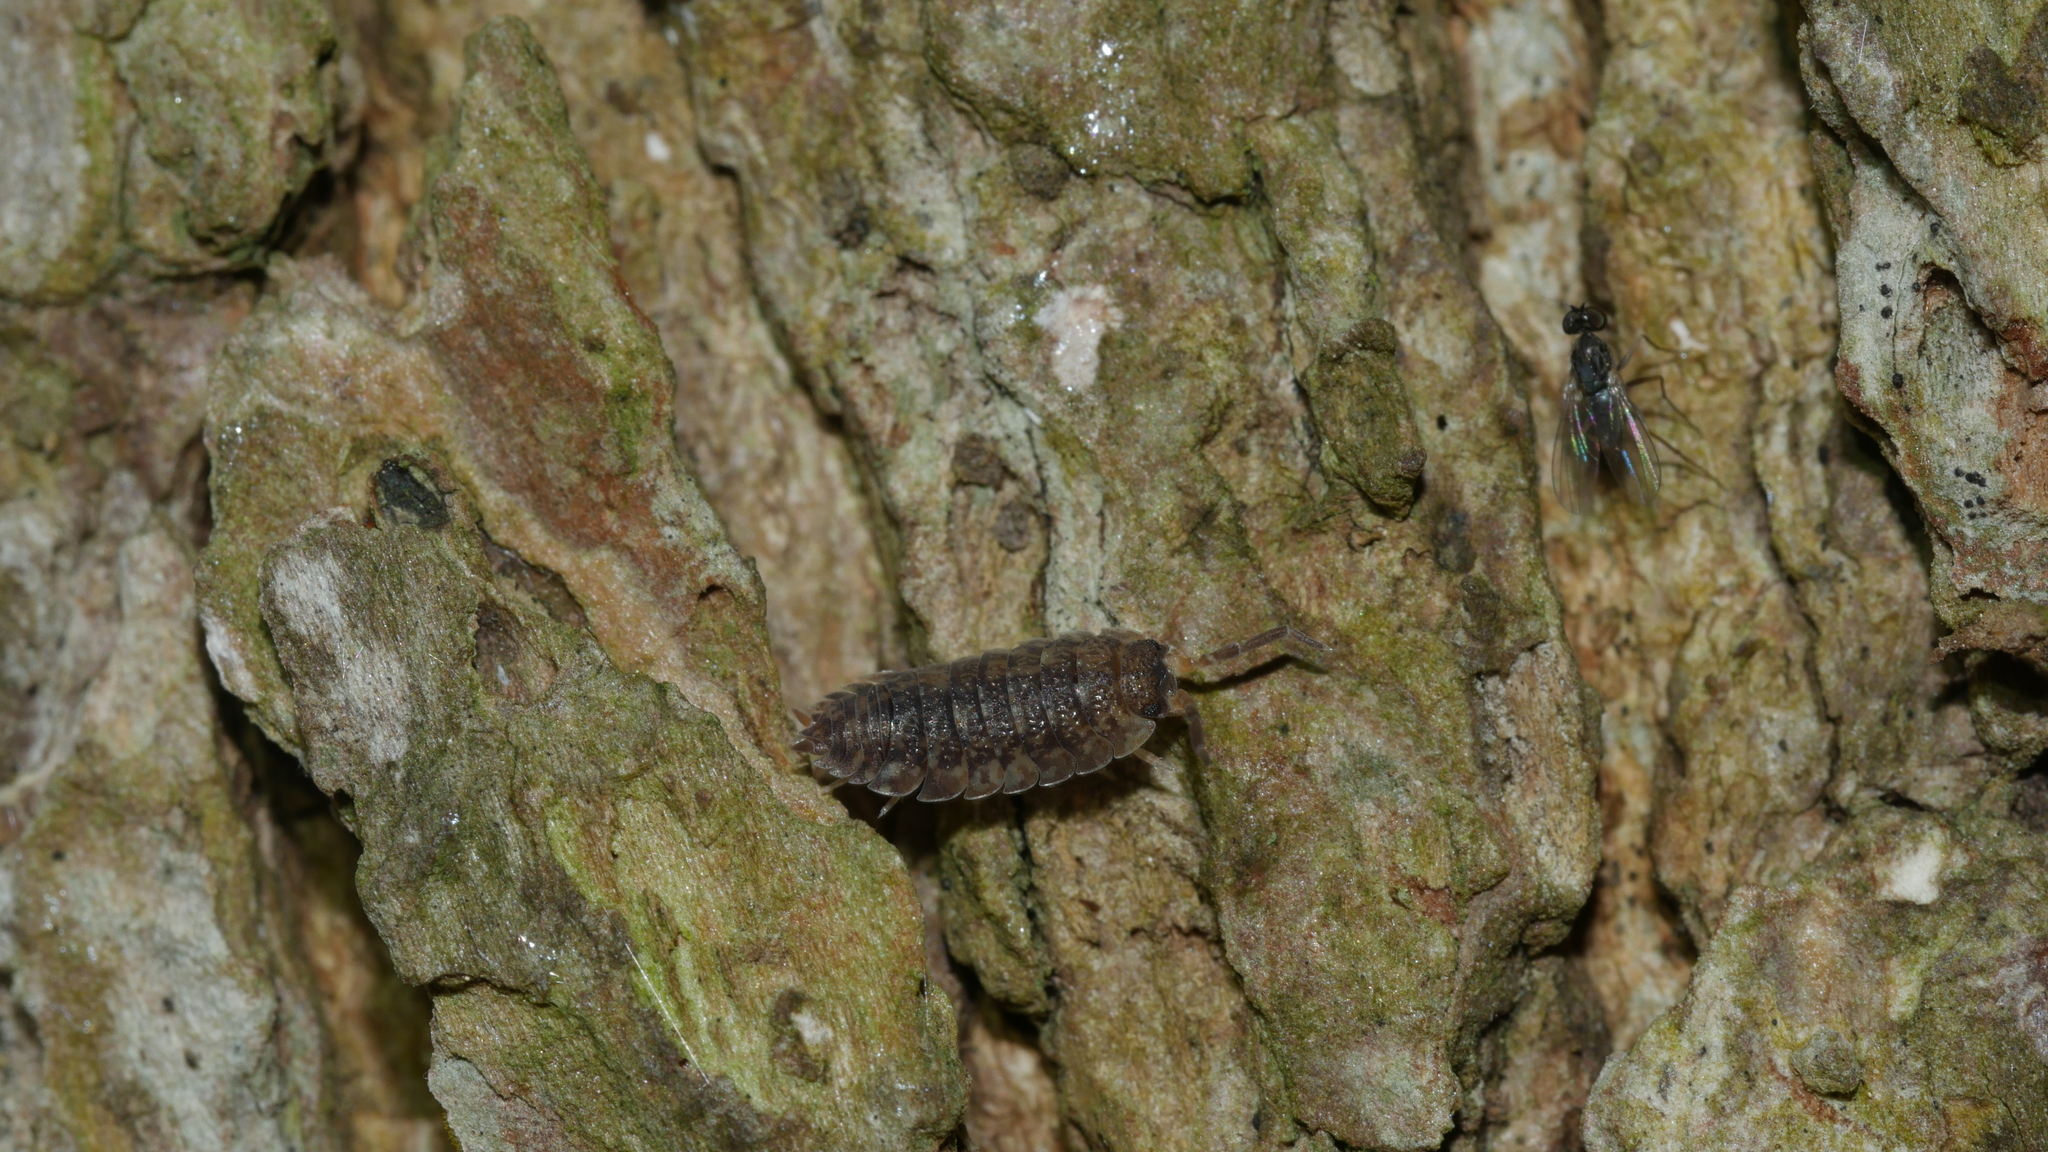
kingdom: Animalia
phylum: Arthropoda
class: Malacostraca
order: Isopoda
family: Porcellionidae
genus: Porcellio
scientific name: Porcellio scaber
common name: Common rough woodlouse
